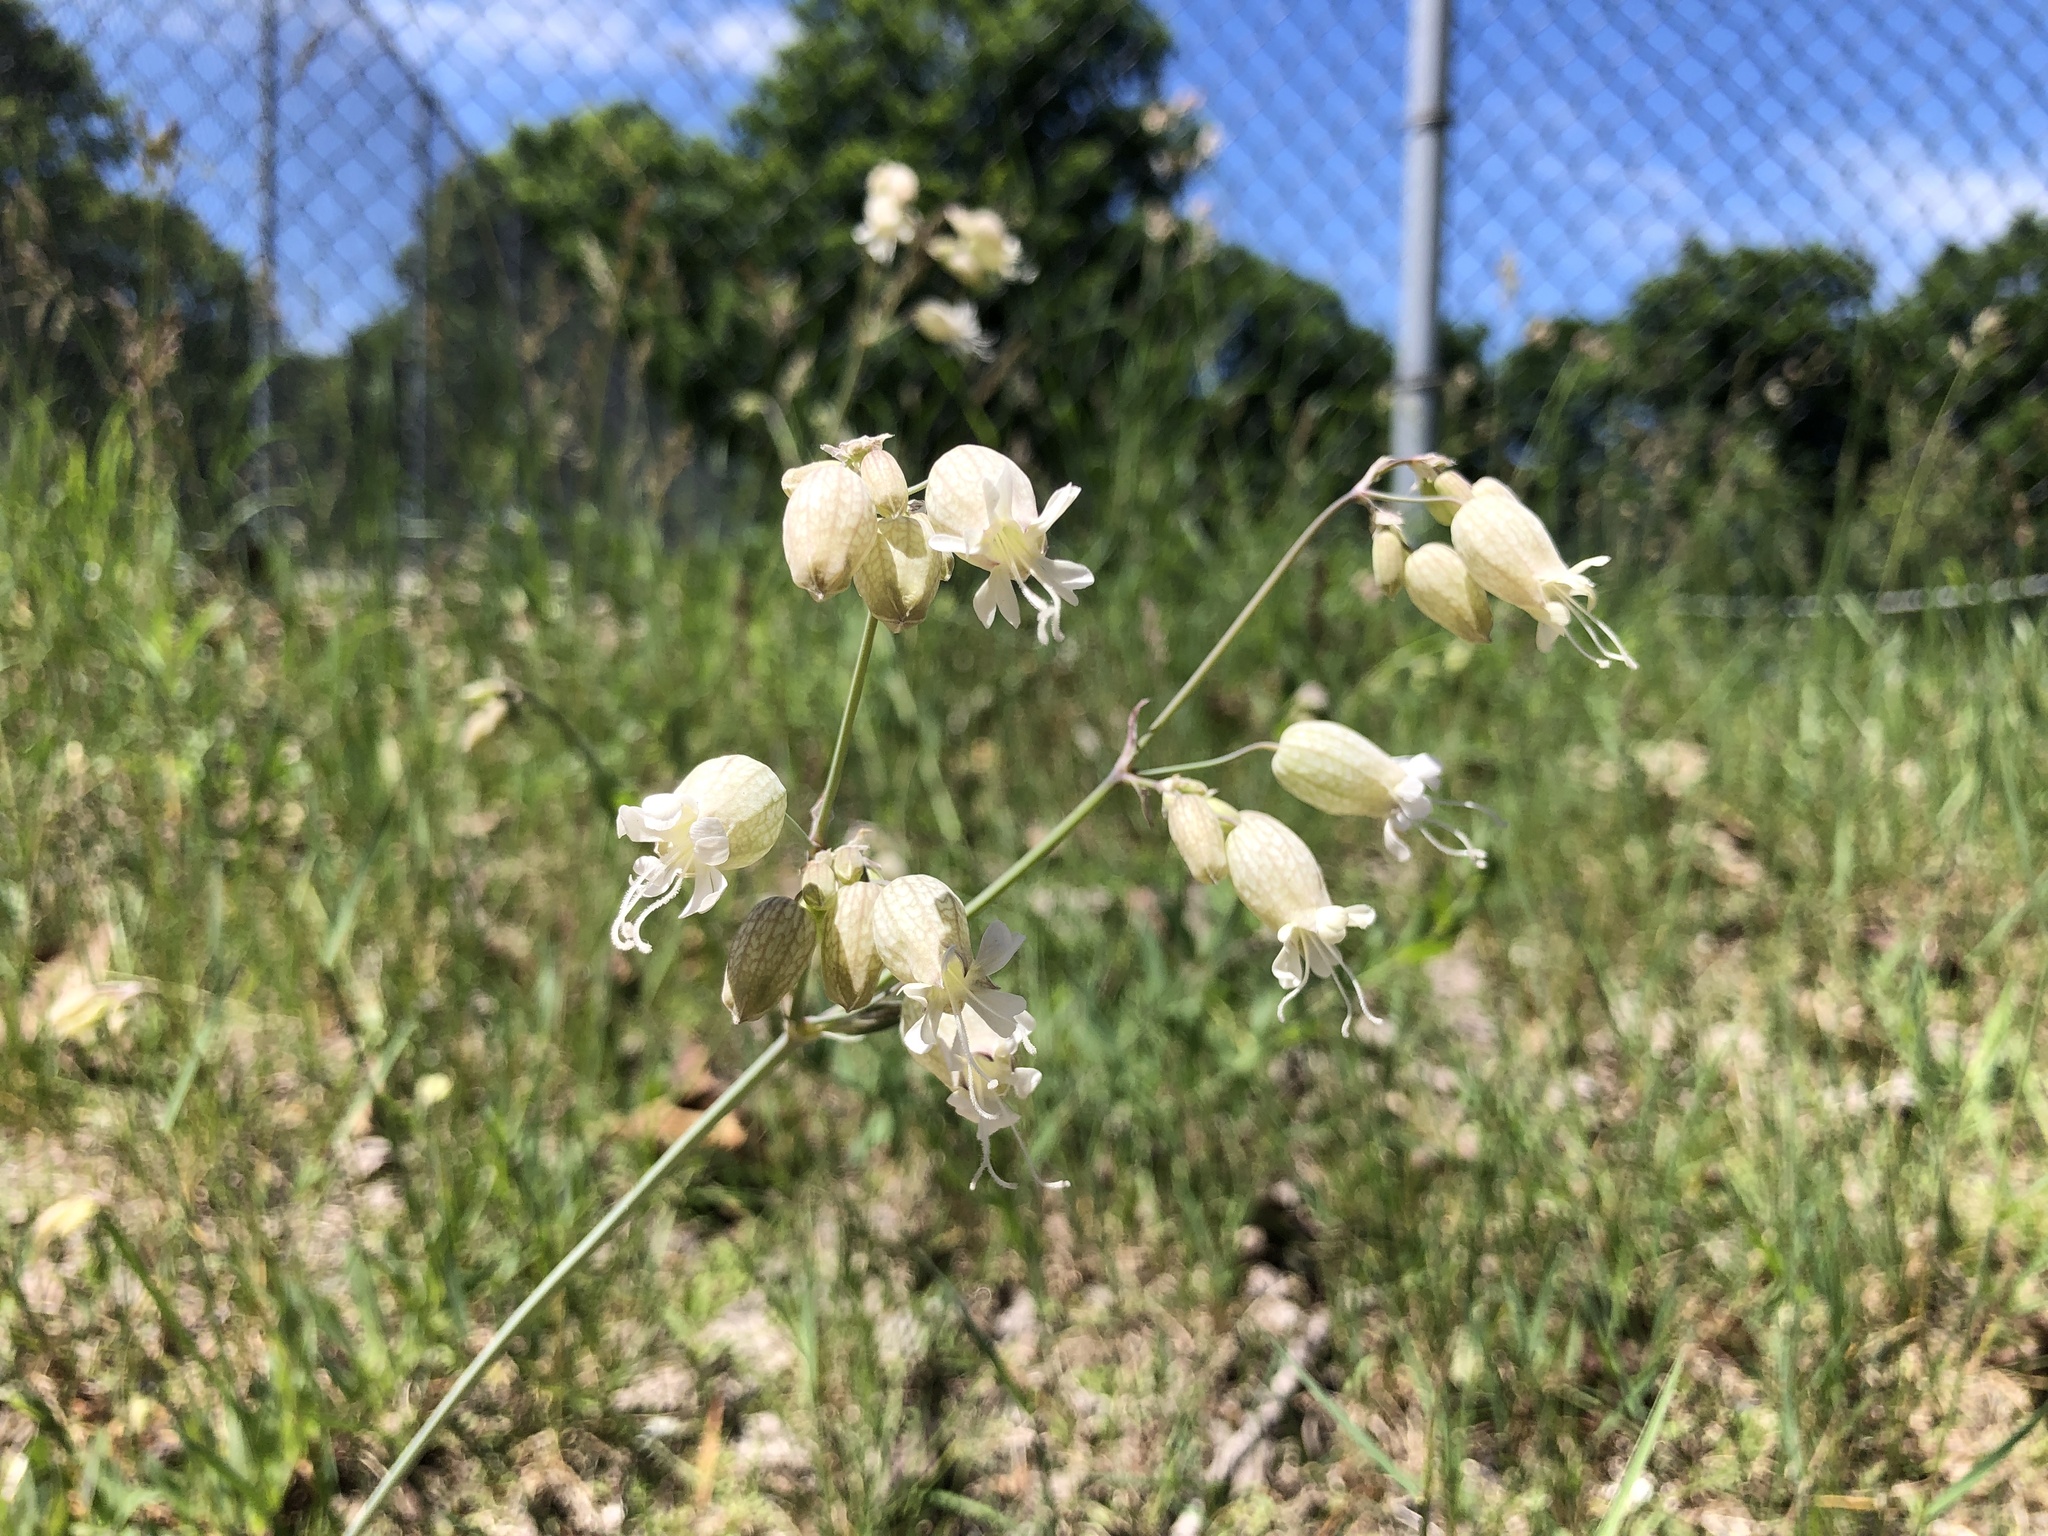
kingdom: Plantae
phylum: Tracheophyta
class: Magnoliopsida
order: Caryophyllales
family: Caryophyllaceae
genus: Silene
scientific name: Silene vulgaris
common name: Bladder campion
